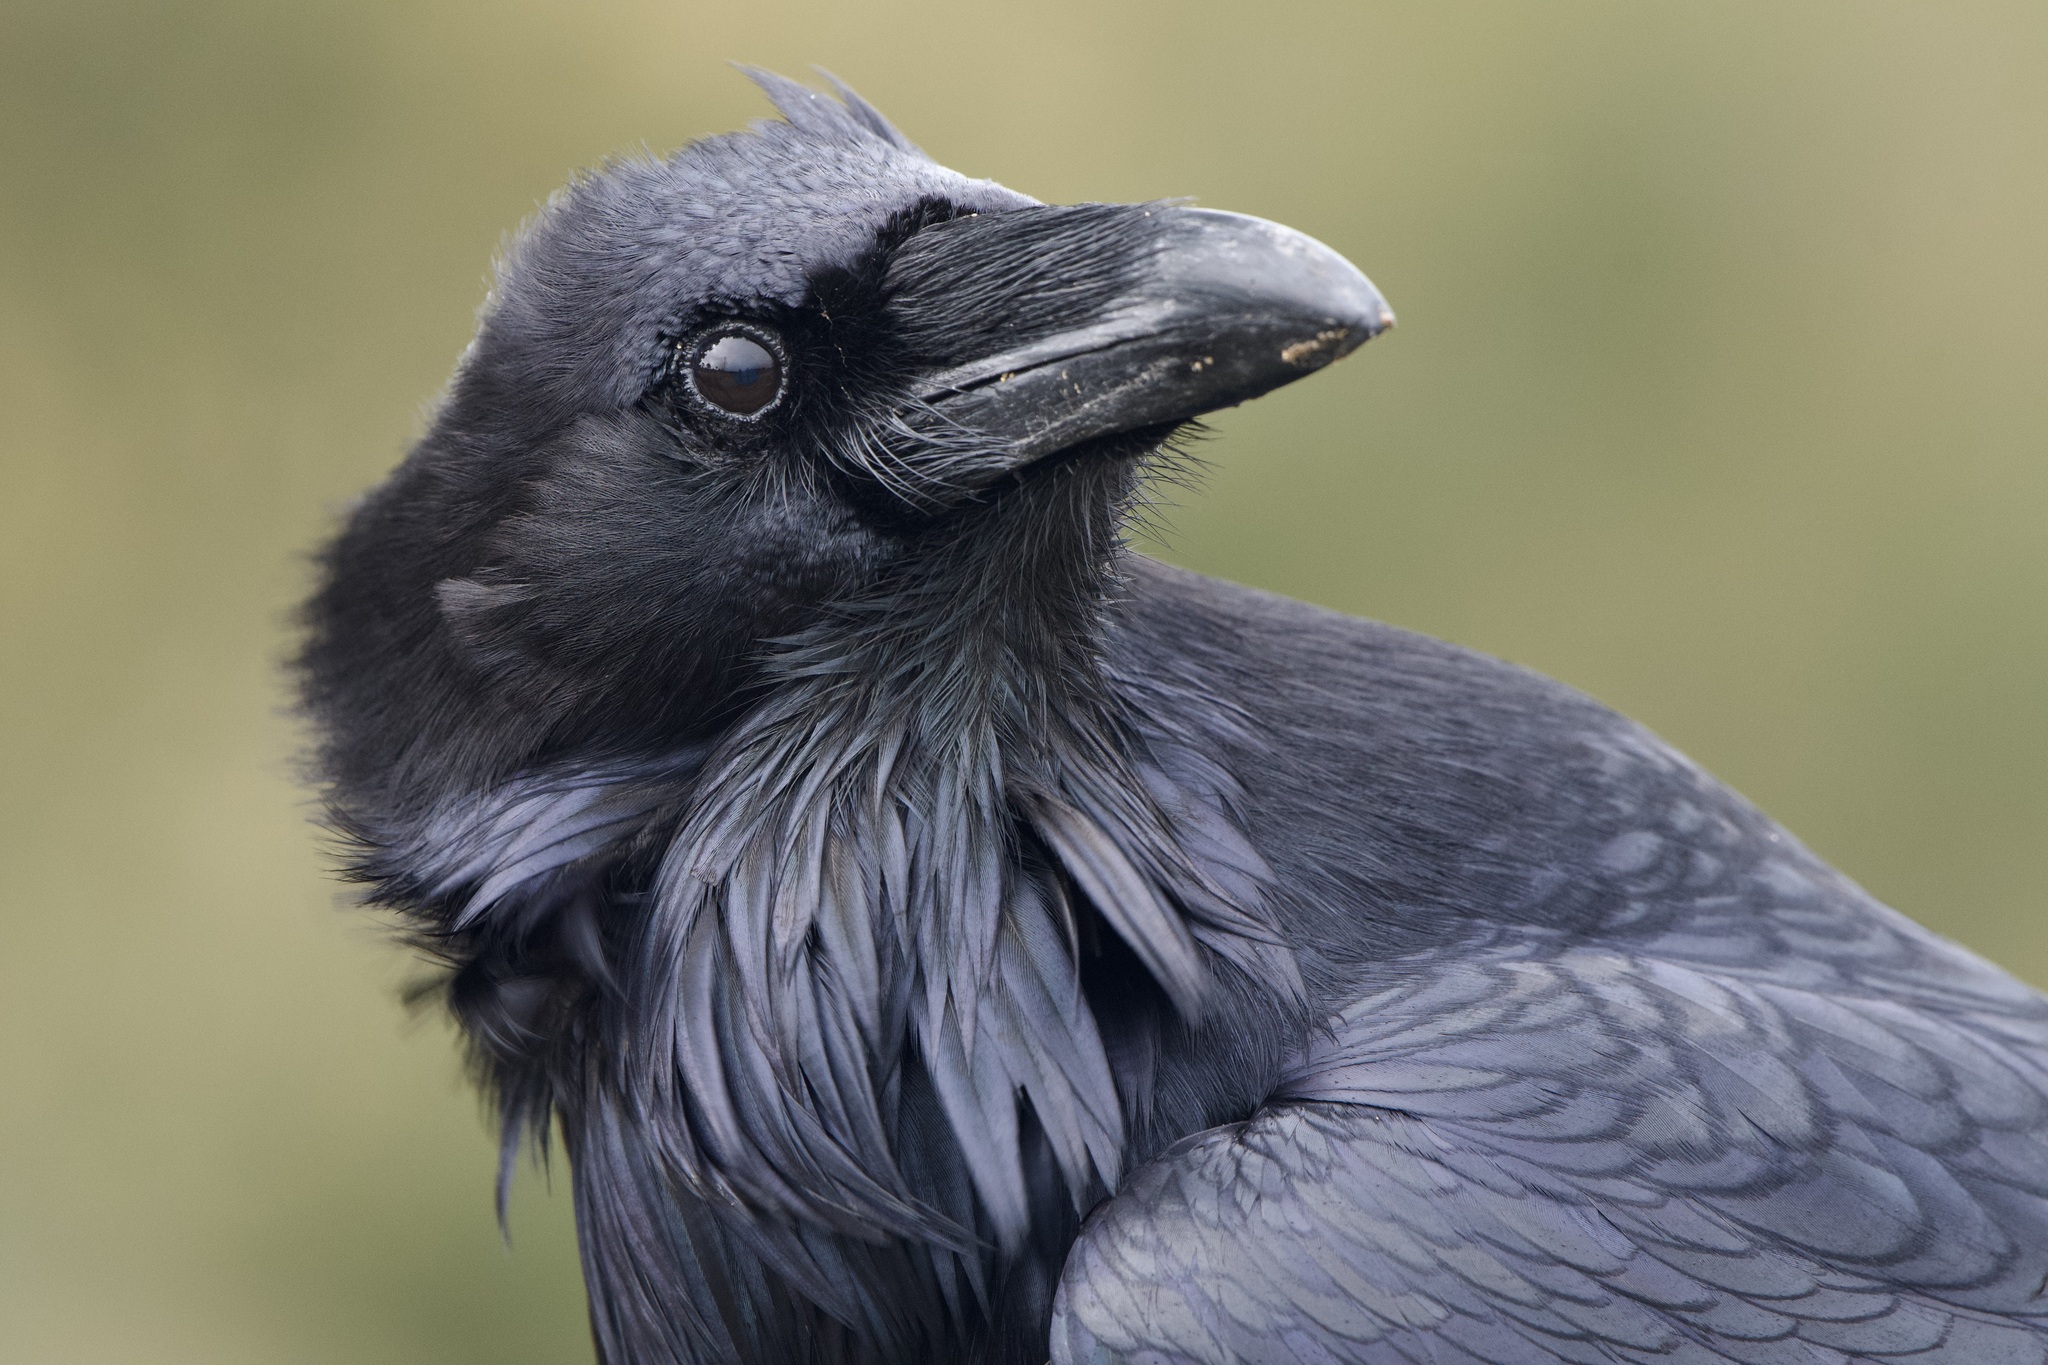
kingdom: Animalia
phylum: Chordata
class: Aves
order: Passeriformes
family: Corvidae
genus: Corvus
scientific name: Corvus corax
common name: Common raven
